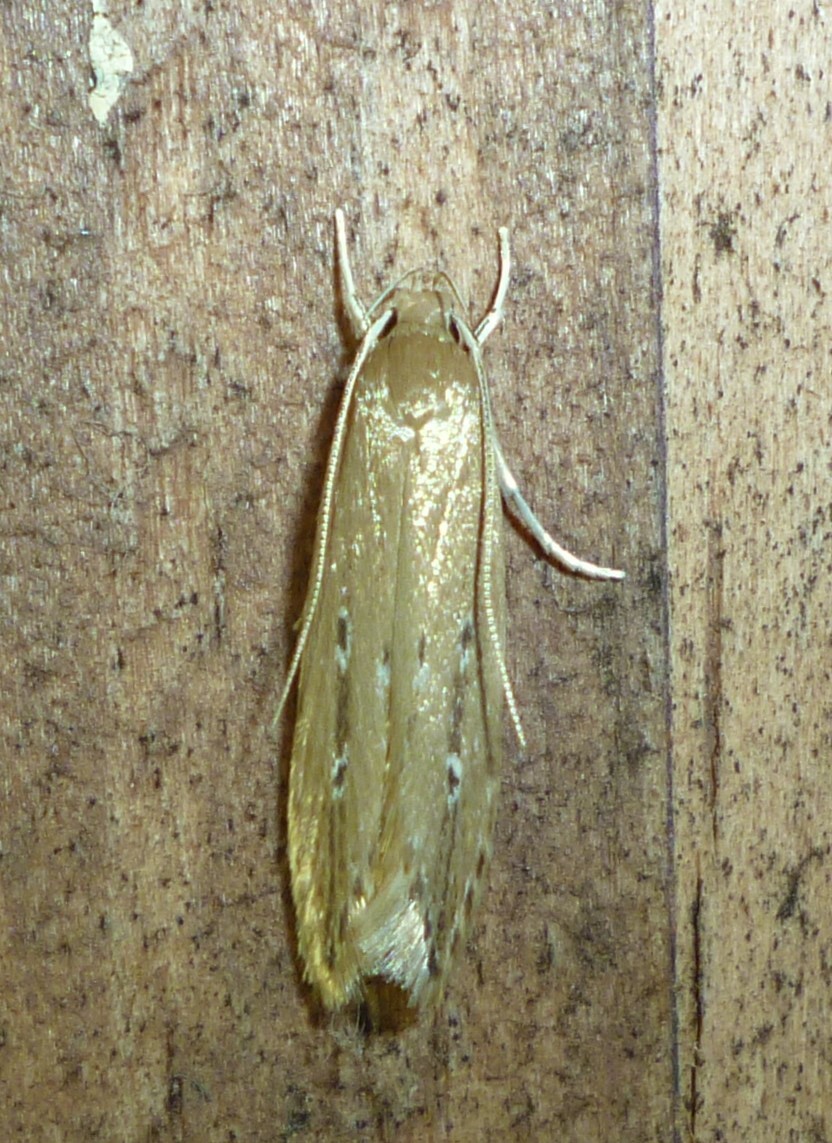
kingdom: Animalia
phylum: Arthropoda
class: Insecta
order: Lepidoptera
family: Cosmopterigidae
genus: Limnaecia
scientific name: Limnaecia phragmitella
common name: Bulrush cosmet
